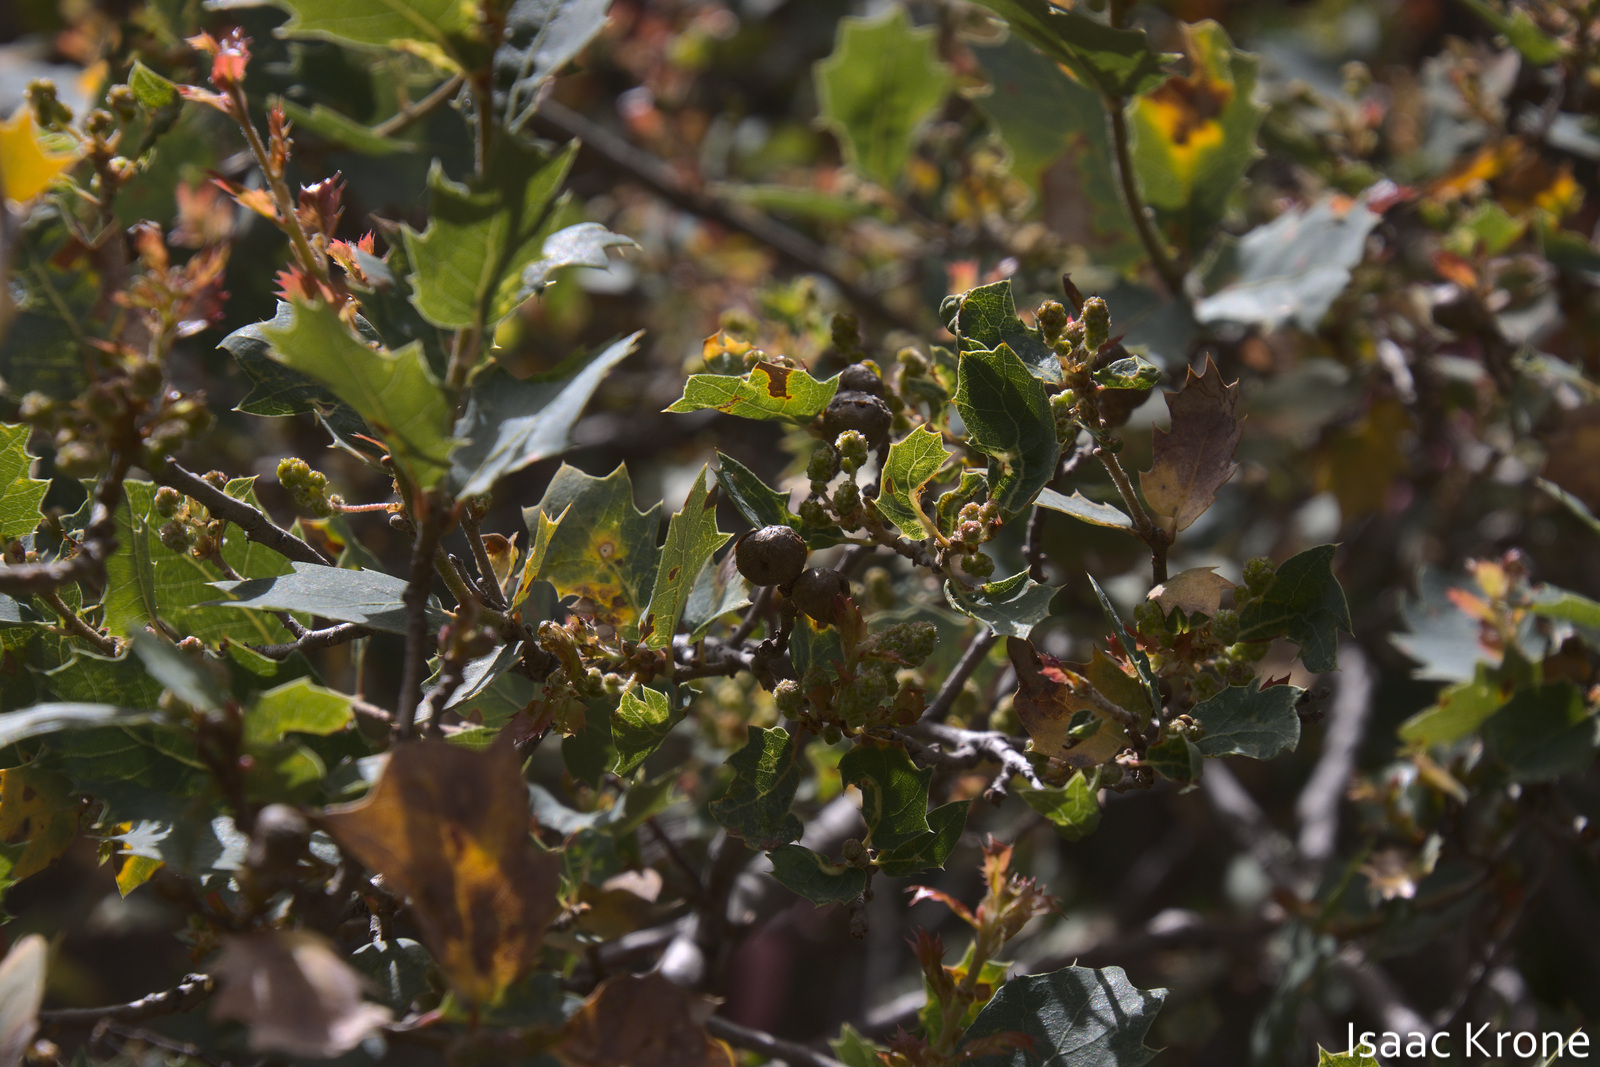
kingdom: Plantae
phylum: Tracheophyta
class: Magnoliopsida
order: Fagales
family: Fagaceae
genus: Quercus
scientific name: Quercus ajoensis
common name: Ajo mountain scrub oak
